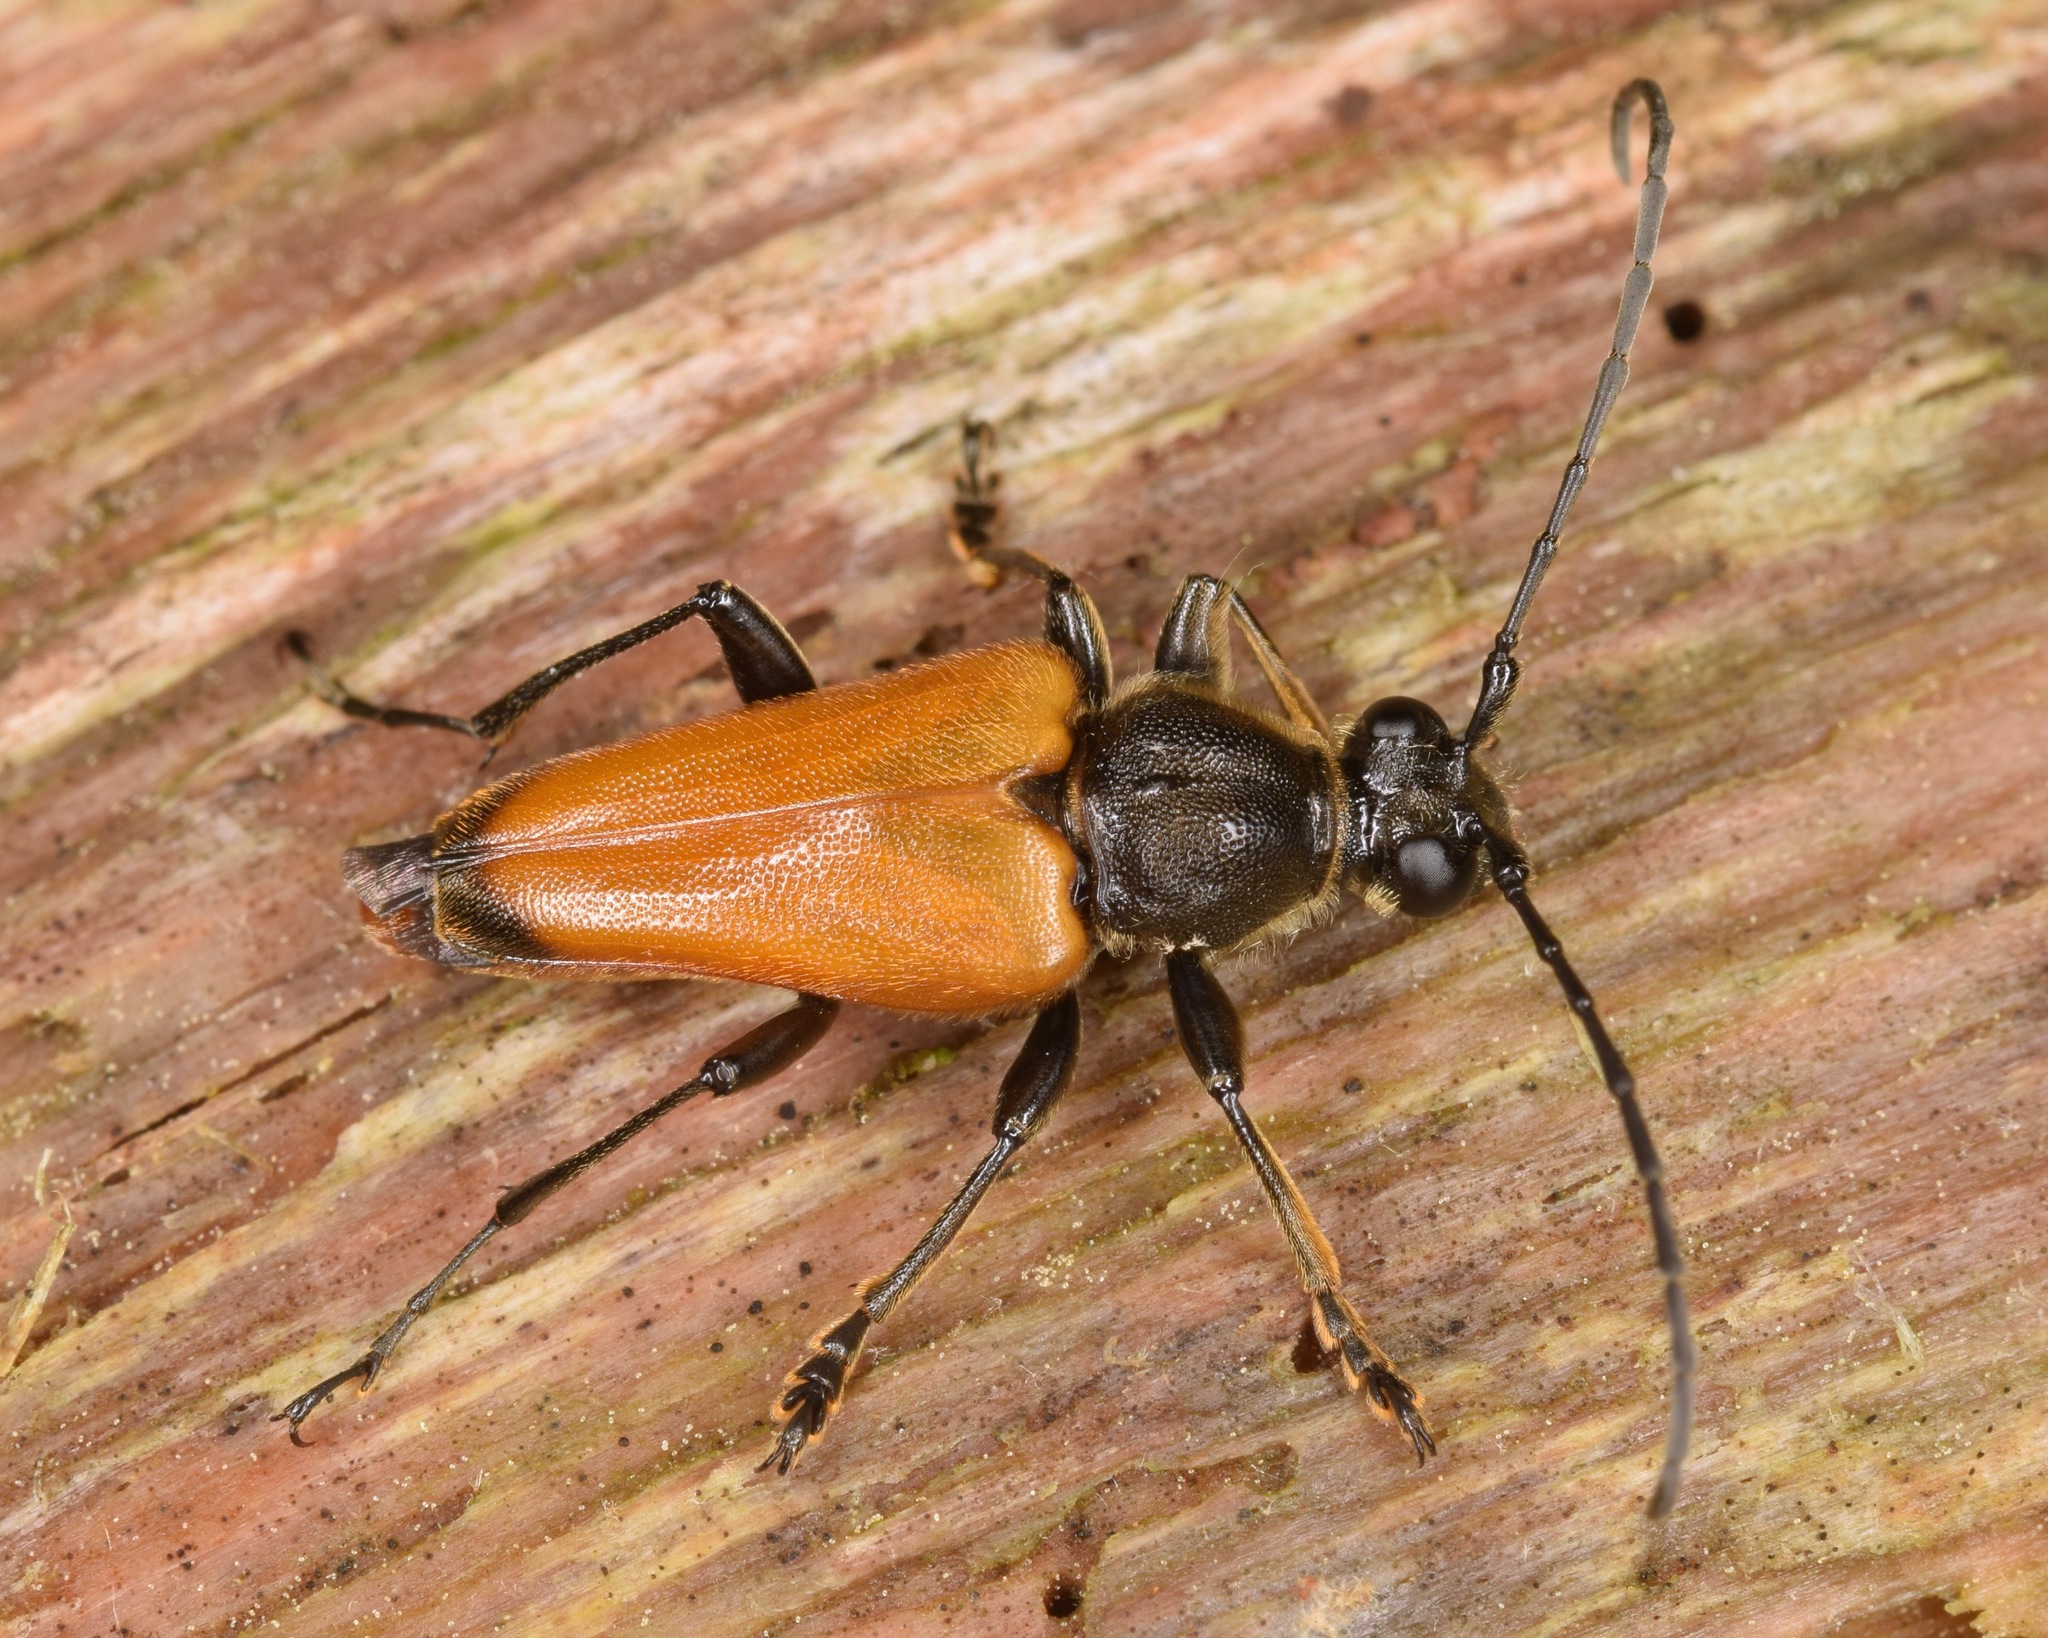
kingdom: Animalia
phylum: Arthropoda
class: Insecta
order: Coleoptera
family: Cerambycidae
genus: Trigonarthris
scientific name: Trigonarthris atrata
